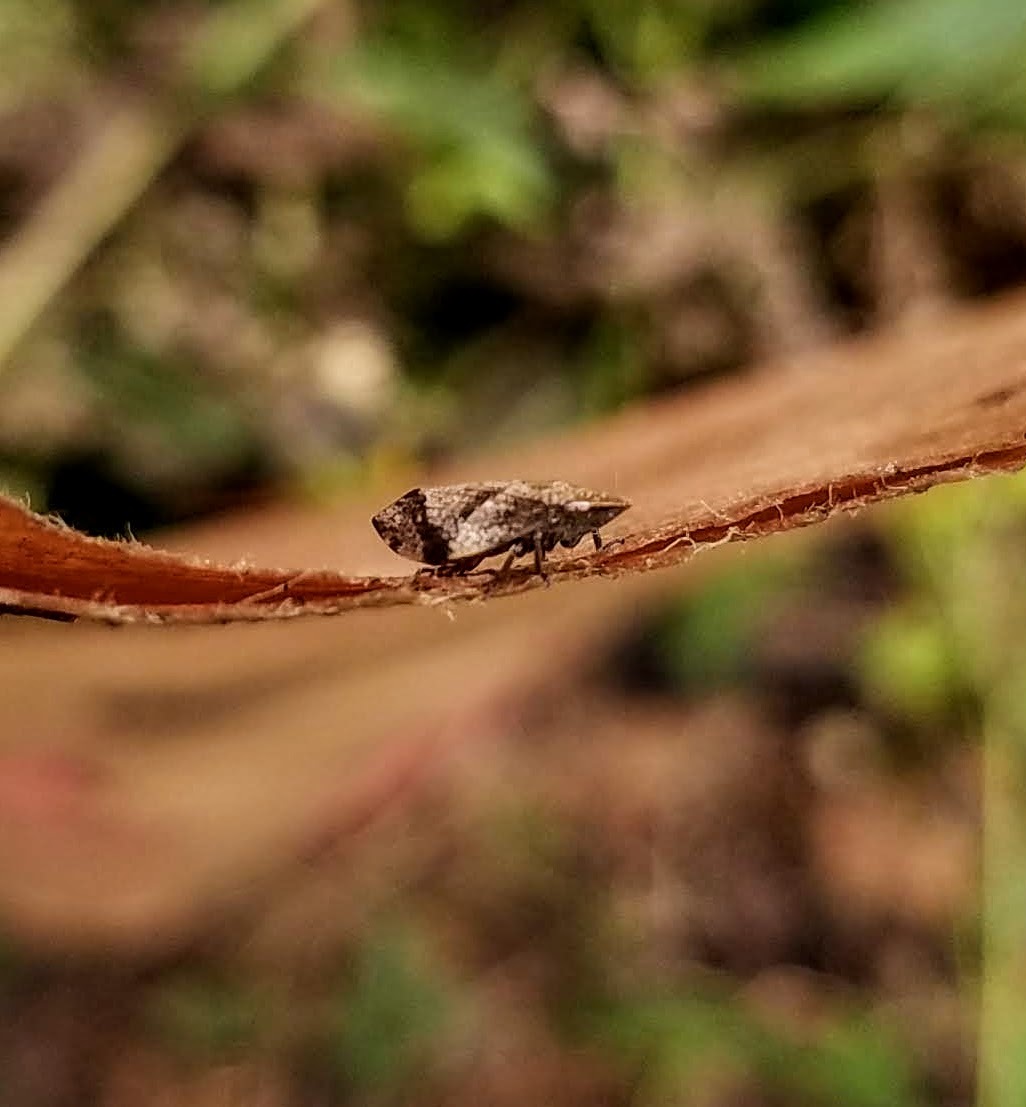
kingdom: Animalia
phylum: Arthropoda
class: Insecta
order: Hemiptera
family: Aphrophoridae
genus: Lepyronia
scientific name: Lepyronia quadrangularis
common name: Diamond-backed spittlebug
